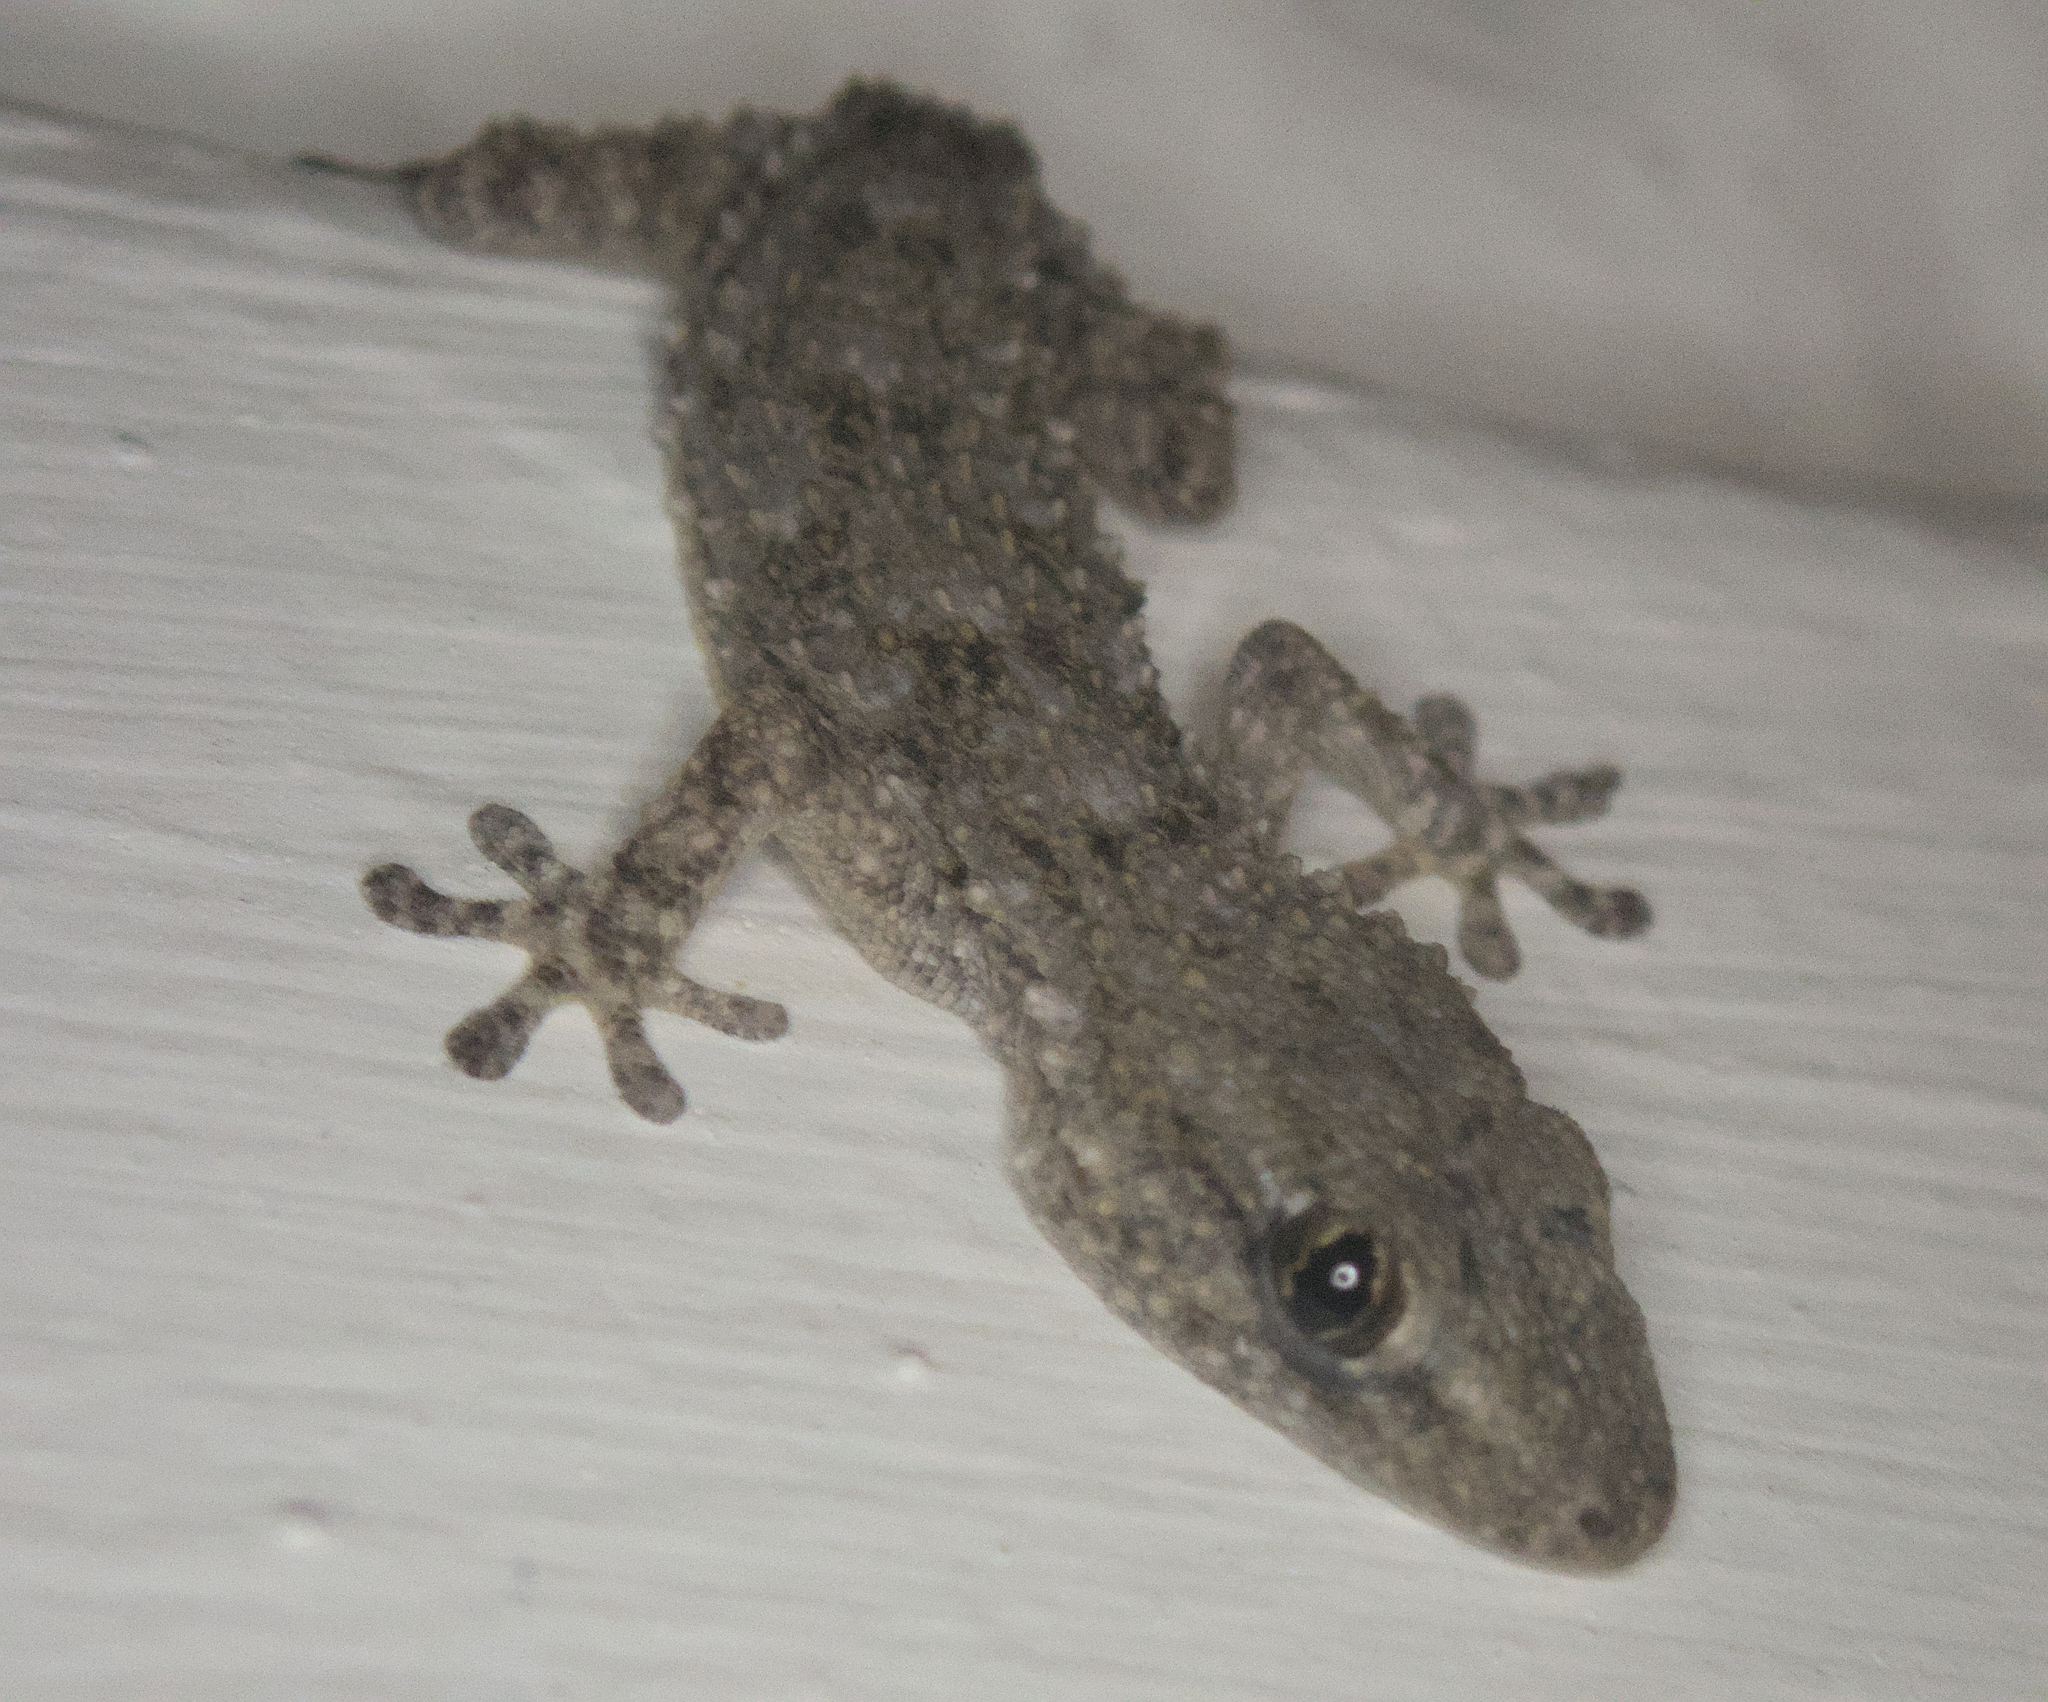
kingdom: Animalia
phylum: Chordata
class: Squamata
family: Phyllodactylidae
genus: Tarentola
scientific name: Tarentola mauritanica
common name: Moorish gecko
